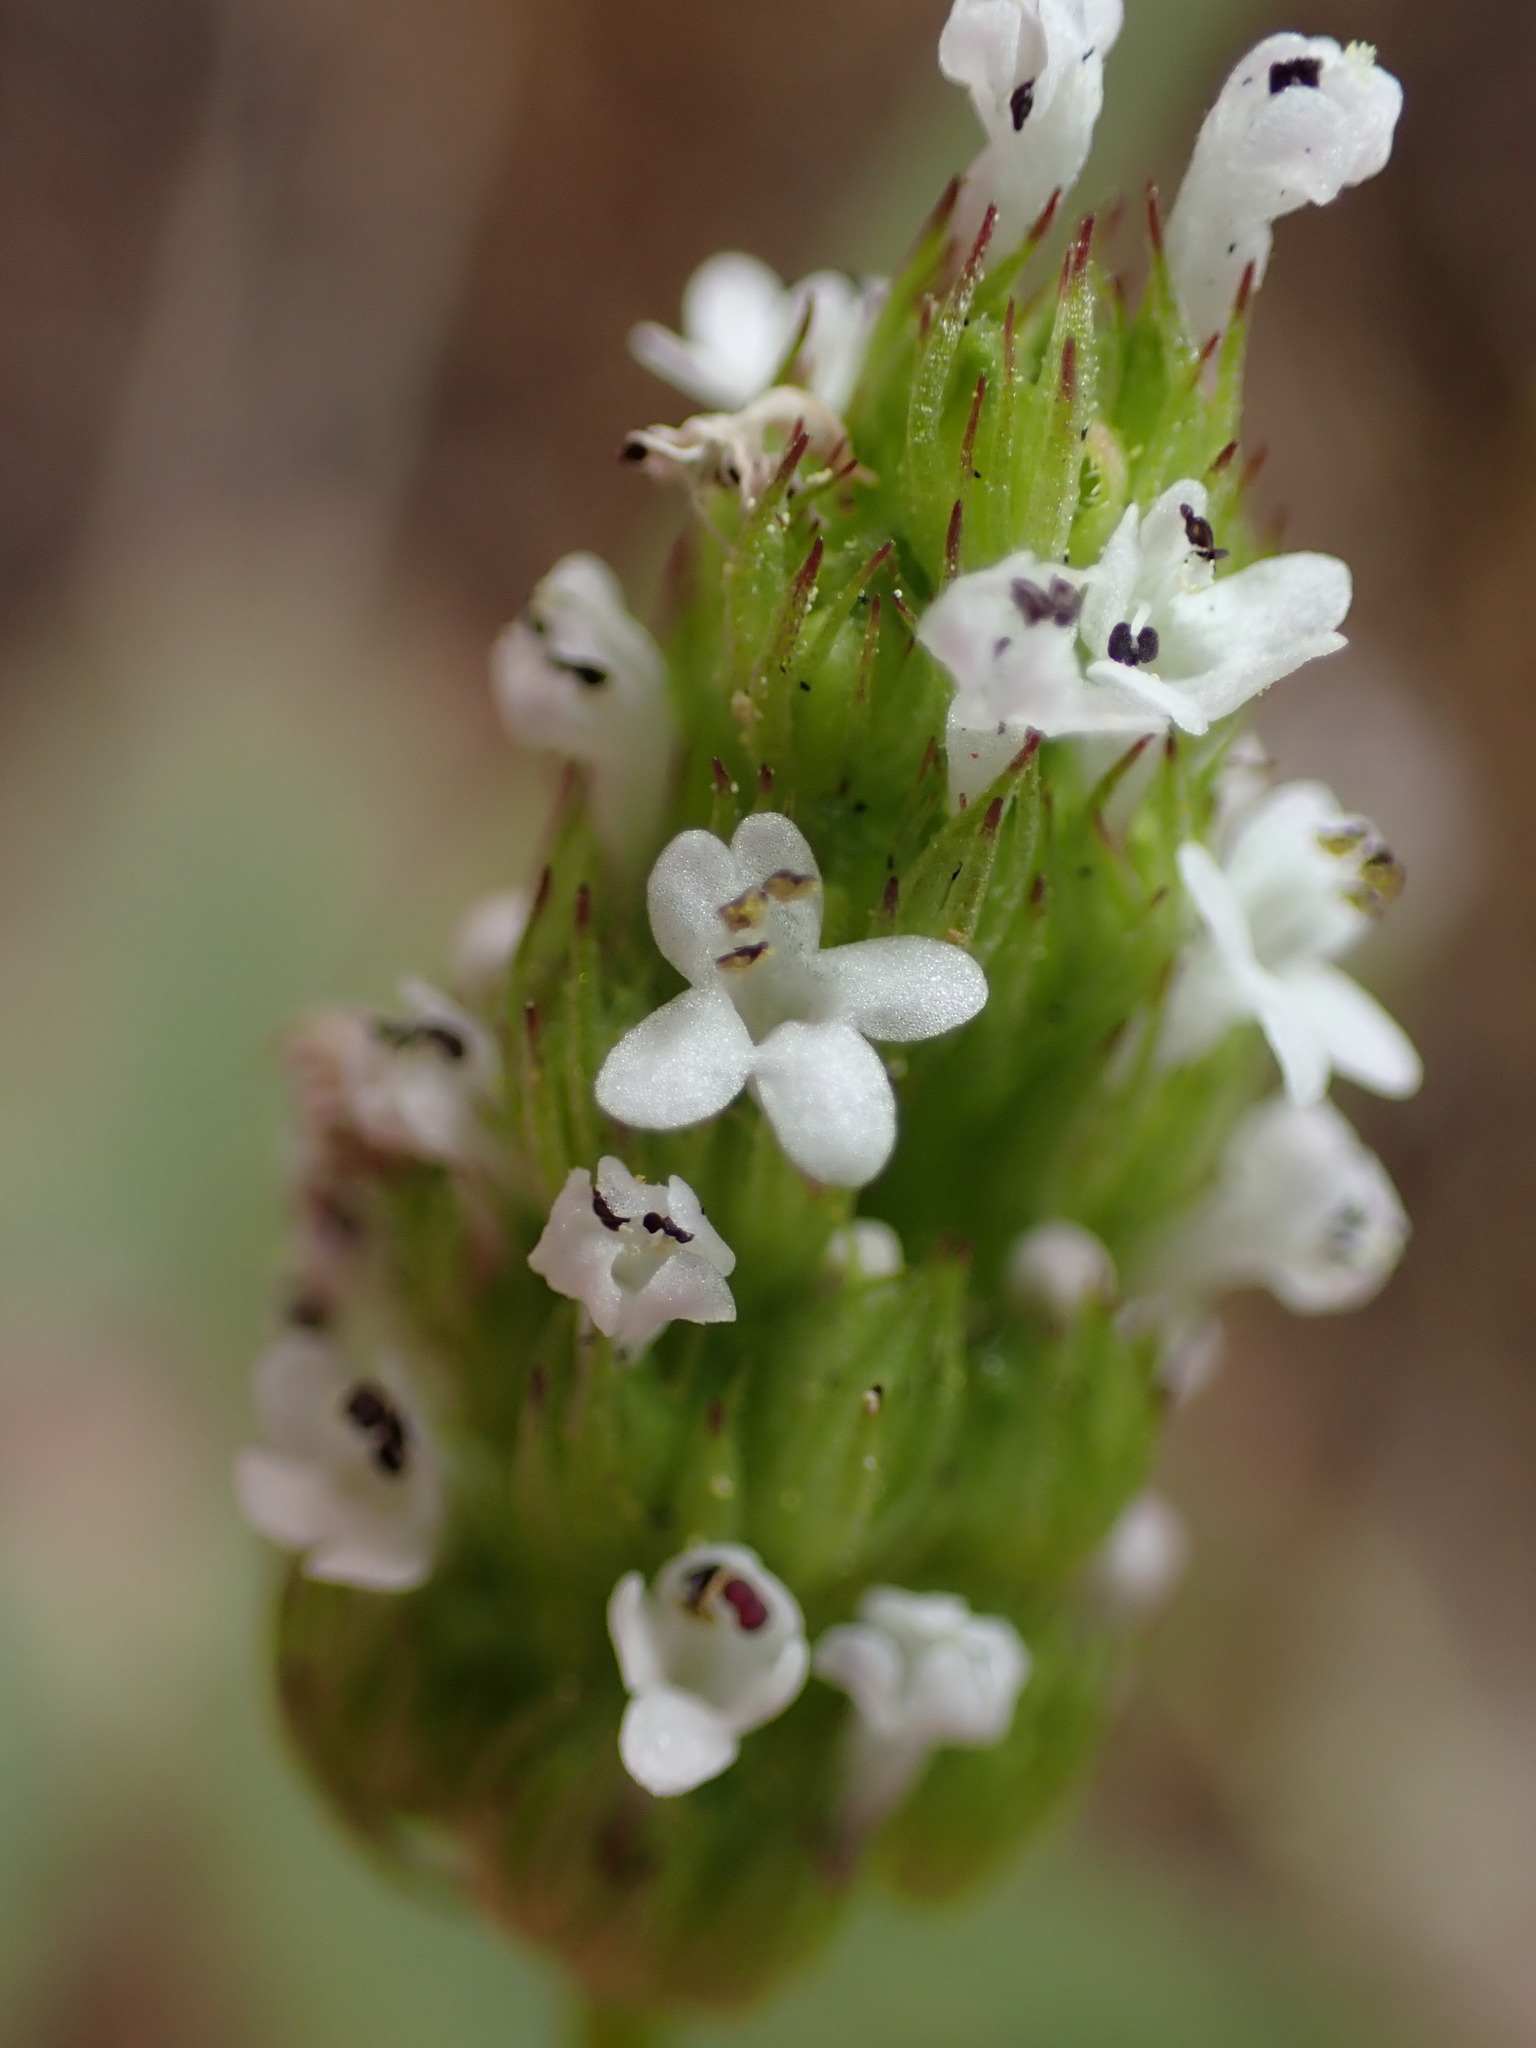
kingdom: Plantae
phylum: Tracheophyta
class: Magnoliopsida
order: Dipsacales
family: Caprifoliaceae
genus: Plectritis
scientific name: Plectritis macroptera
